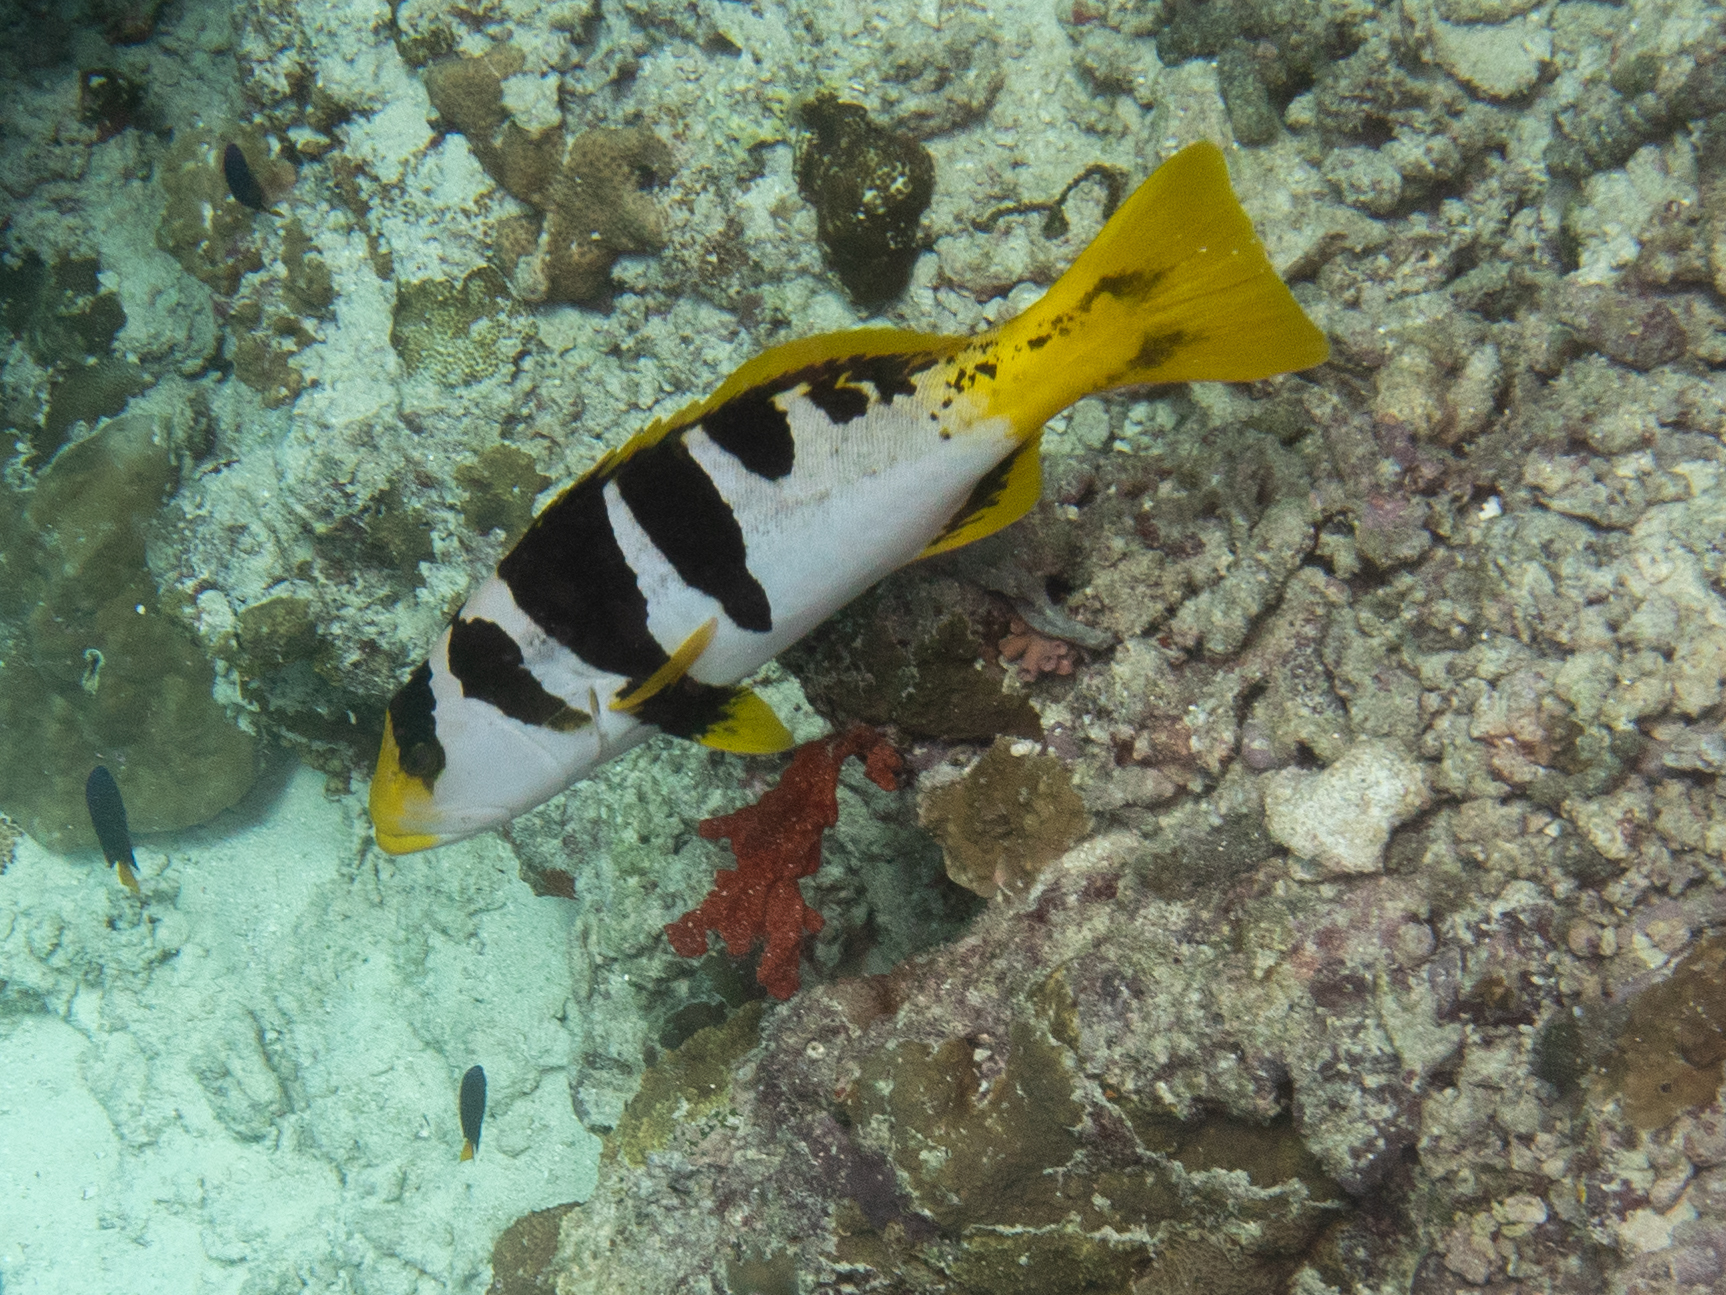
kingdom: Animalia
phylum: Chordata
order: Perciformes
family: Serranidae
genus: Plectropomus
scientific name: Plectropomus laevis
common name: Chinese footballer
